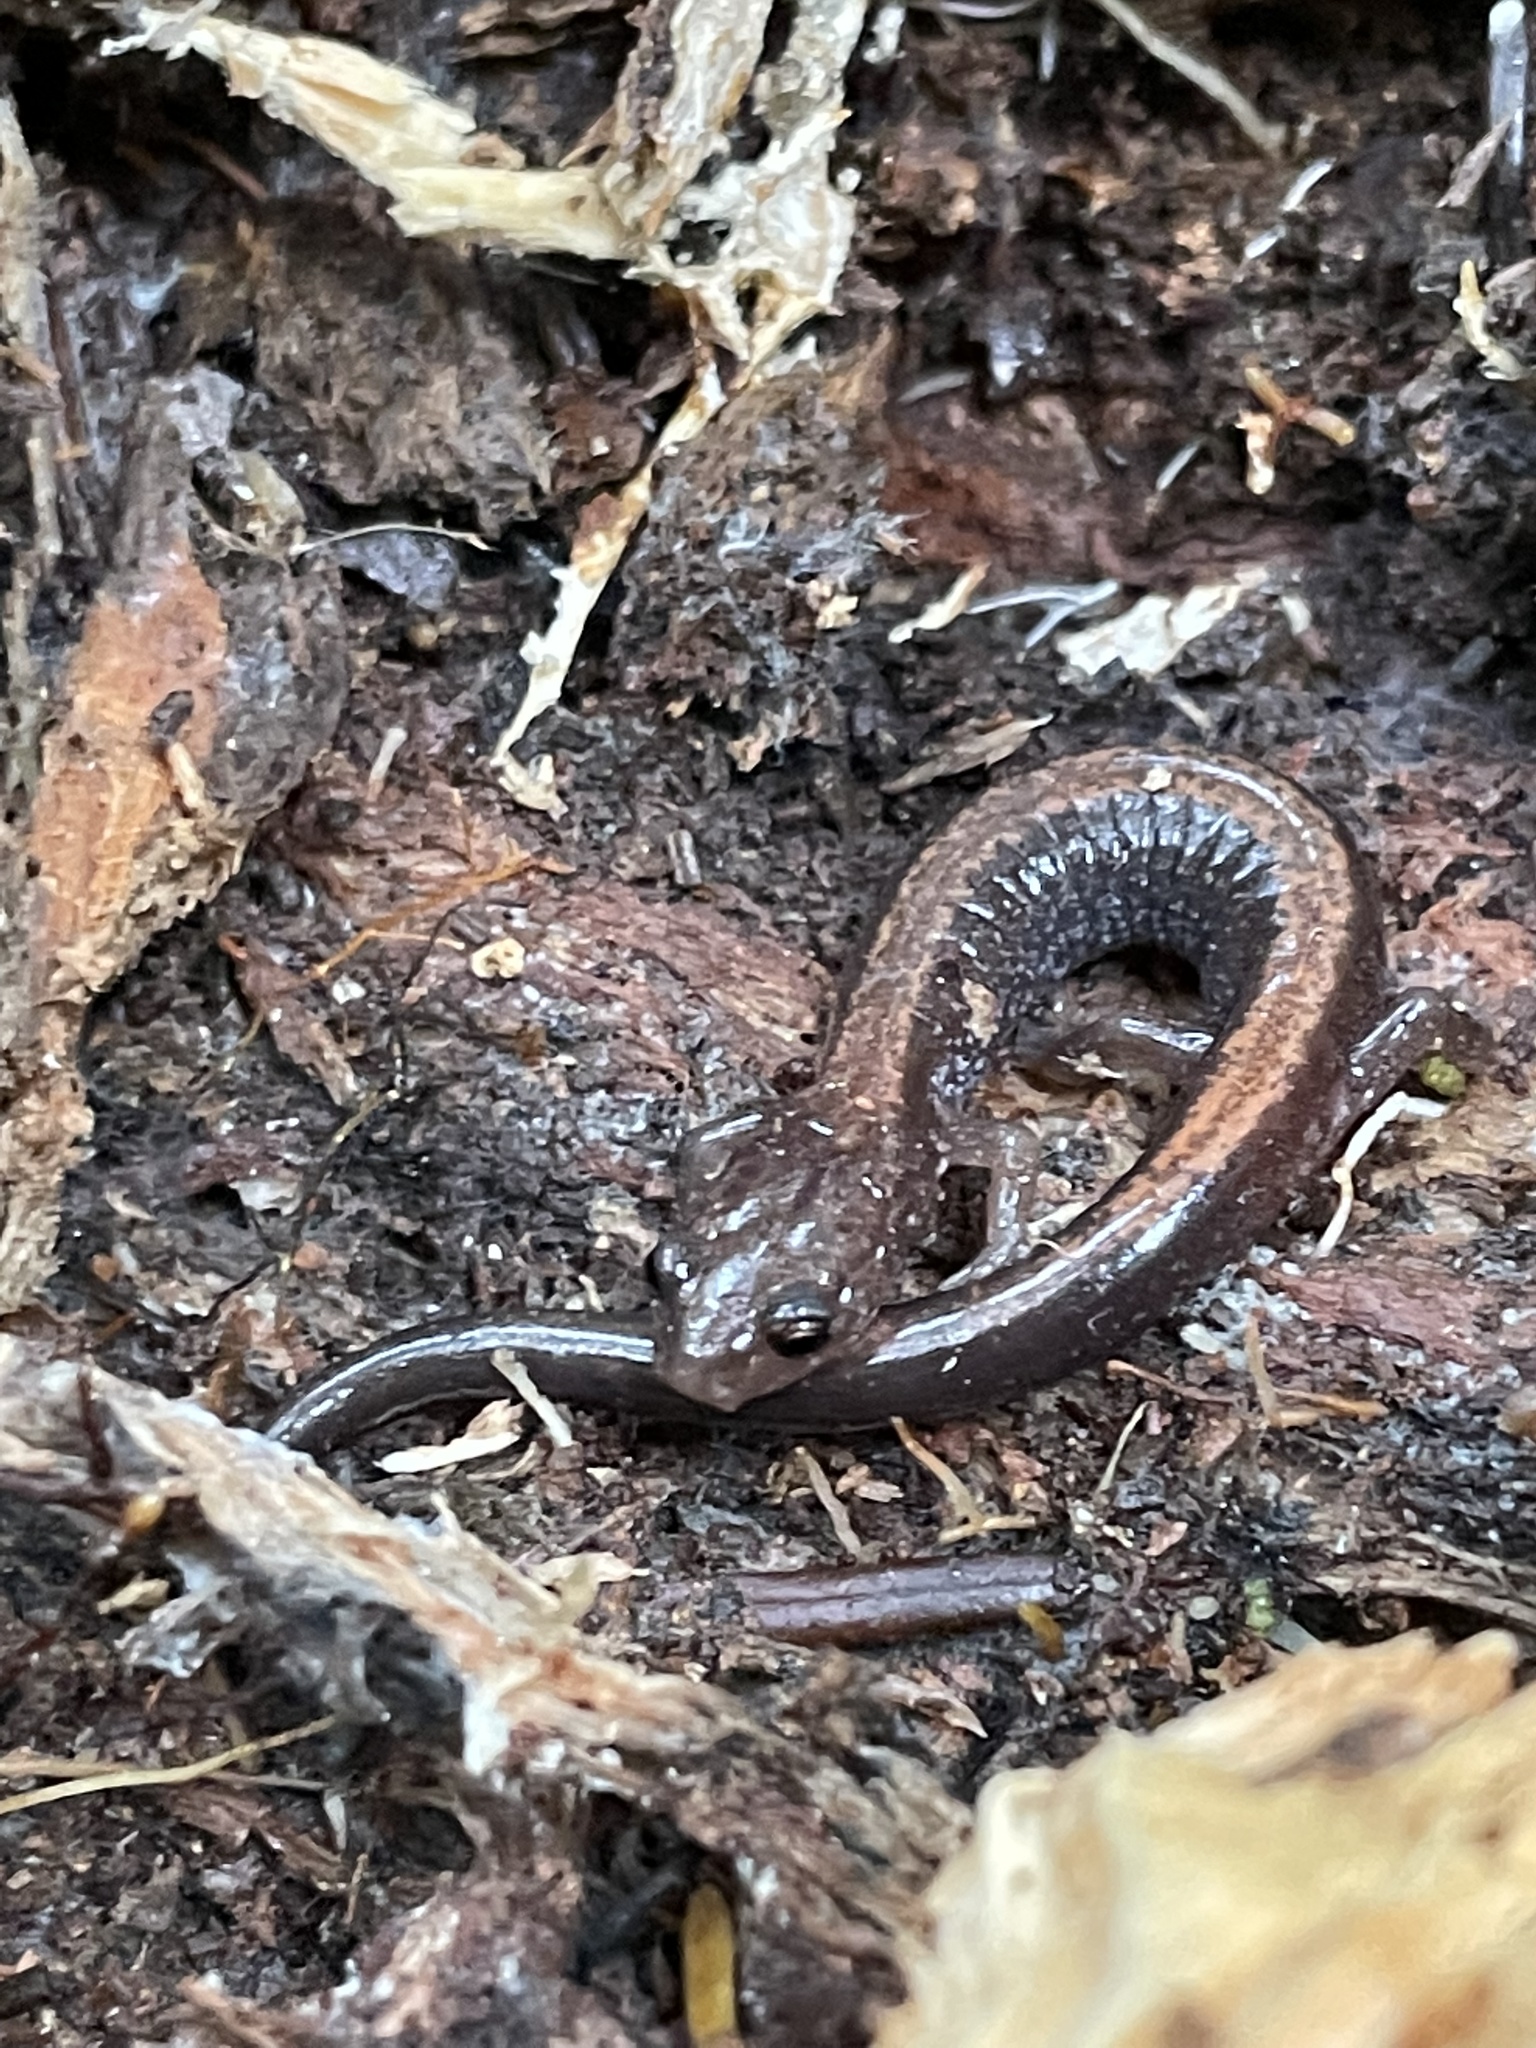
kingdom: Animalia
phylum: Chordata
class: Amphibia
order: Caudata
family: Plethodontidae
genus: Plethodon
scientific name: Plethodon cinereus
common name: Redback salamander
